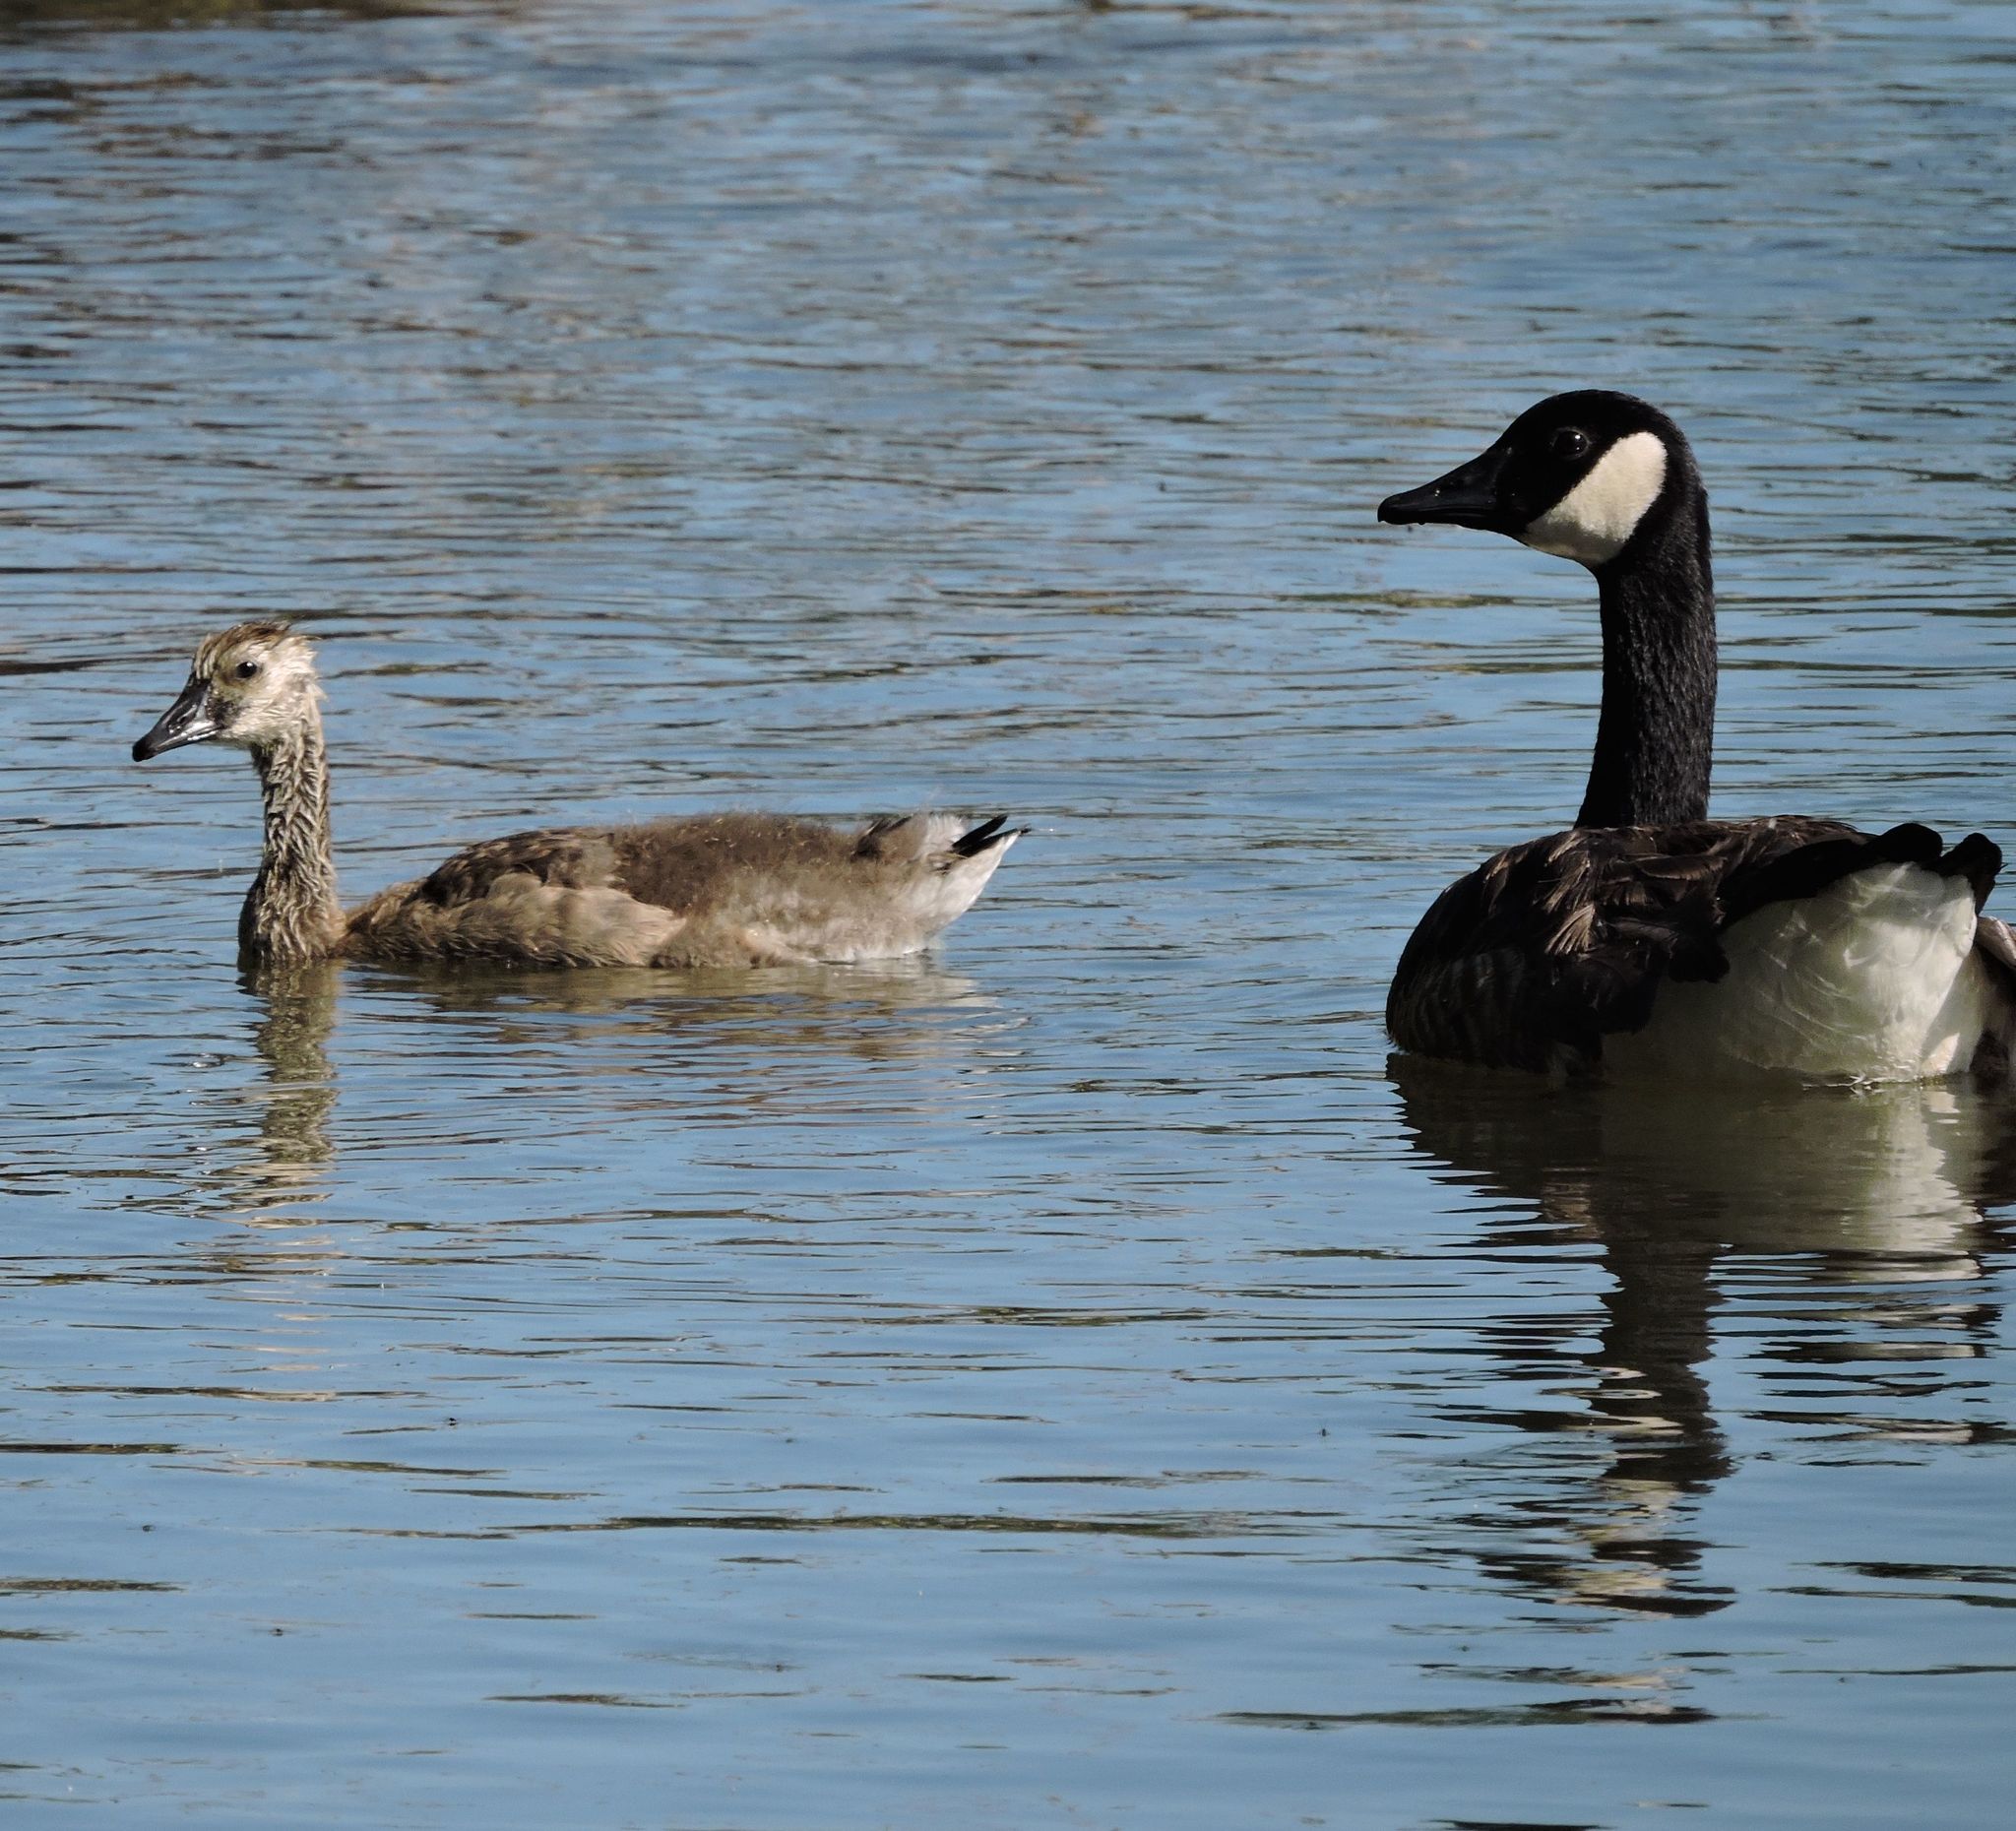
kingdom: Animalia
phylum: Chordata
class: Aves
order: Anseriformes
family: Anatidae
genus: Branta
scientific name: Branta canadensis
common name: Canada goose
